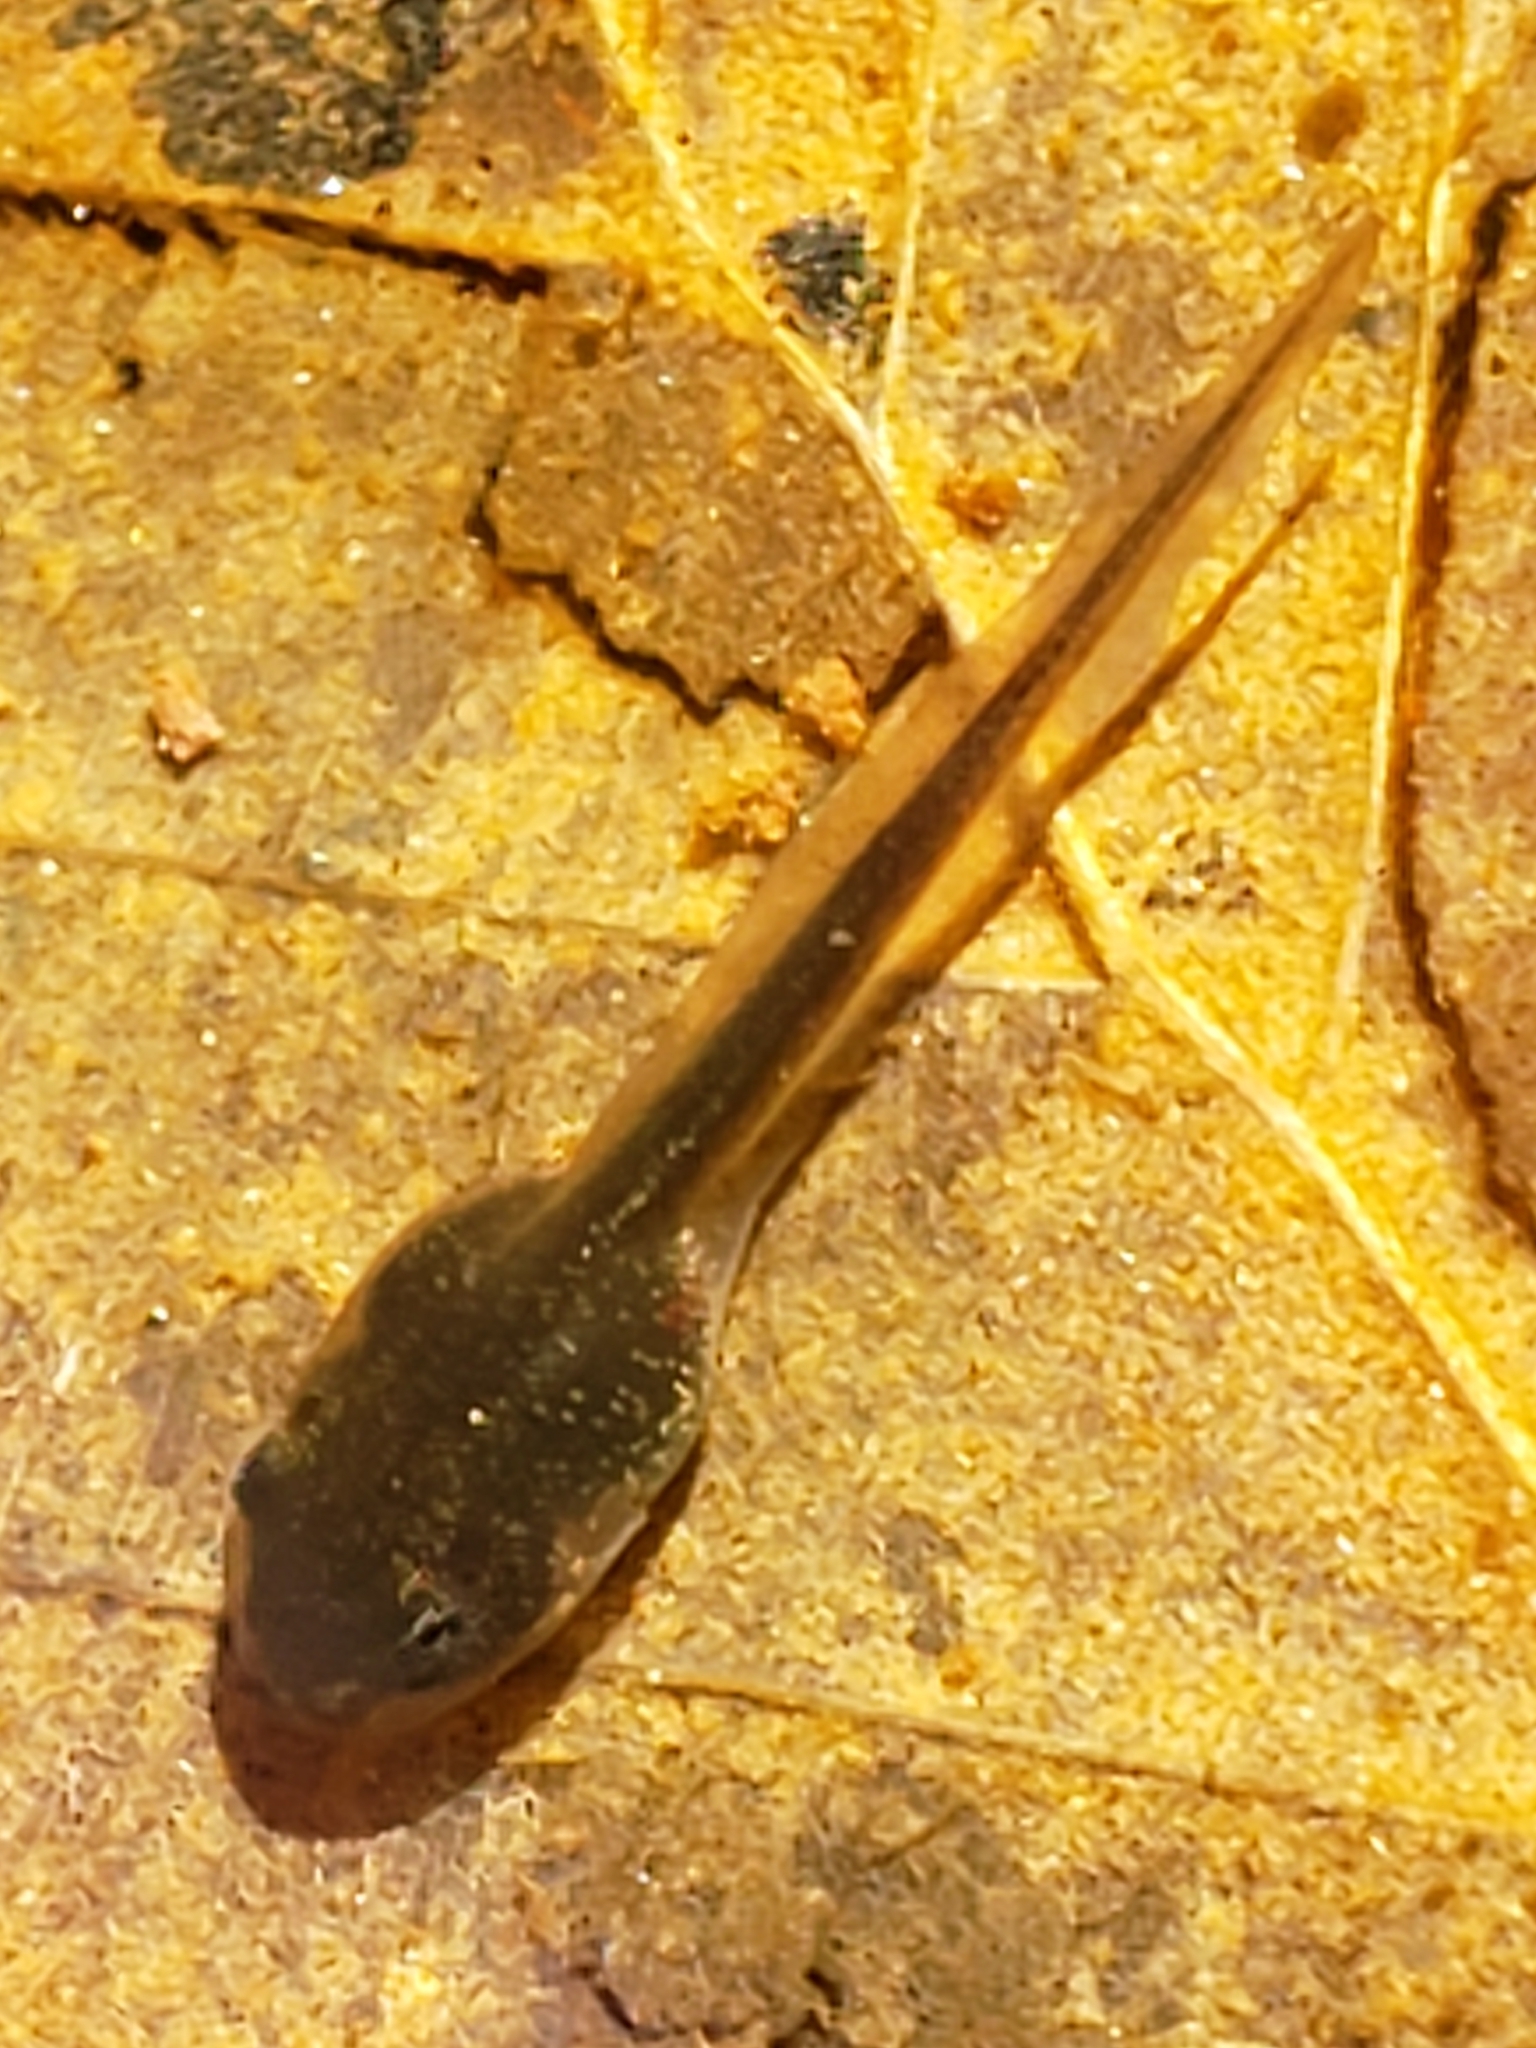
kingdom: Animalia
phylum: Chordata
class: Amphibia
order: Anura
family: Ranidae
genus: Lithobates
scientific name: Lithobates sylvaticus
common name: Wood frog
